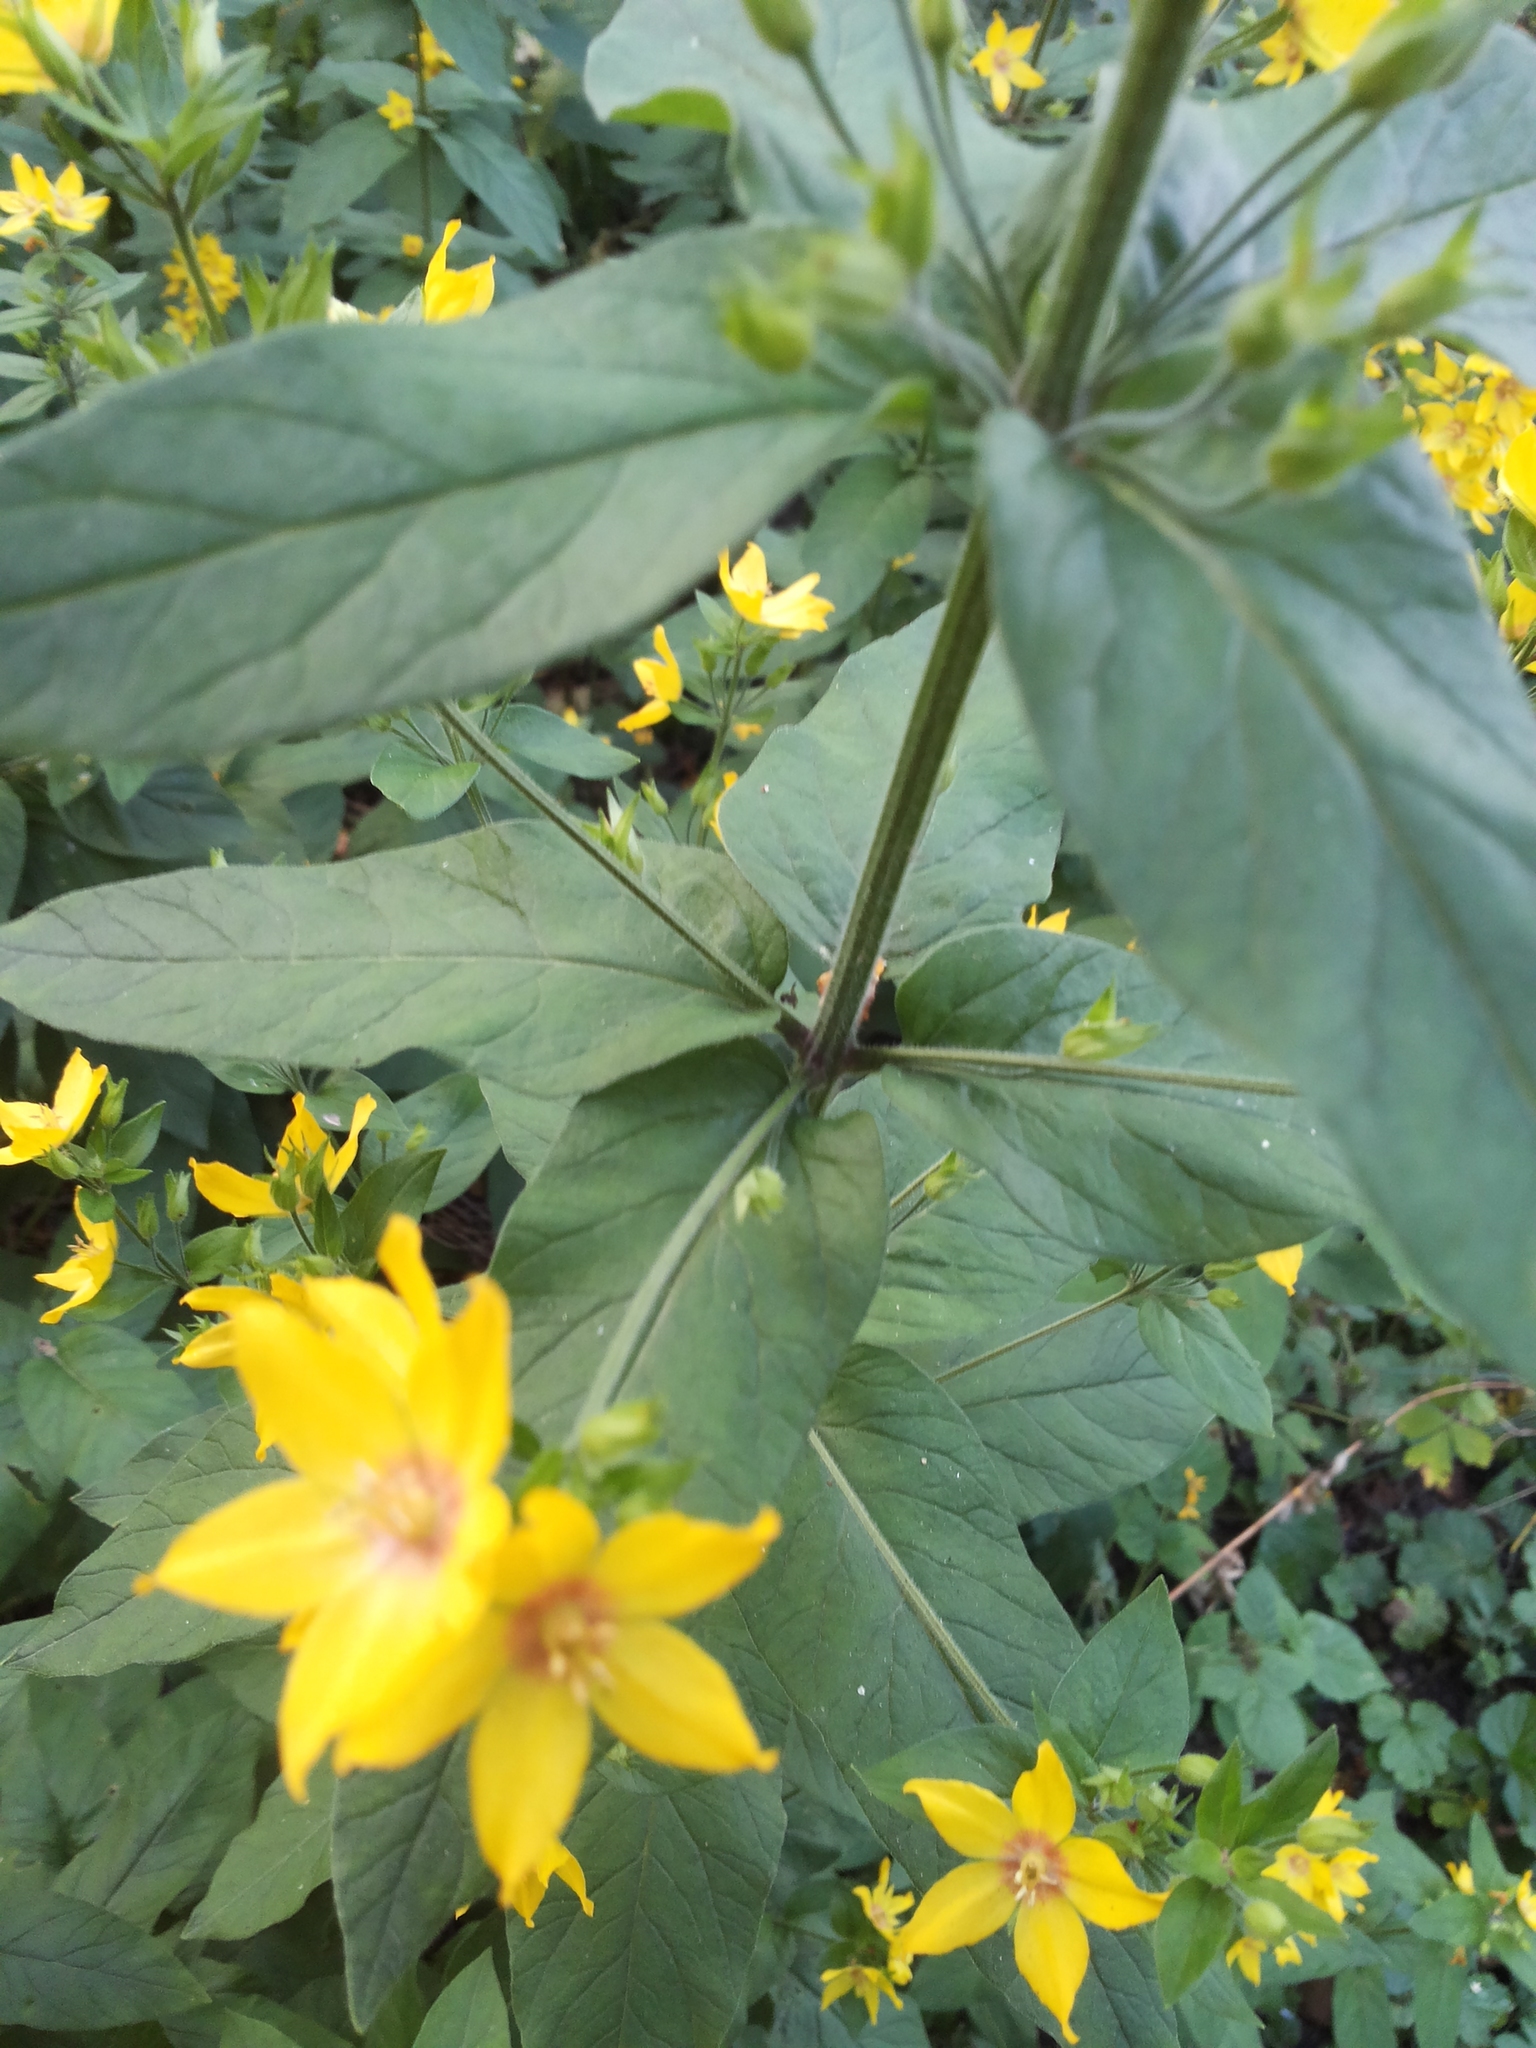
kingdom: Plantae
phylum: Tracheophyta
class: Magnoliopsida
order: Ericales
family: Primulaceae
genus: Lysimachia
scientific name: Lysimachia punctata
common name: Dotted loosestrife
